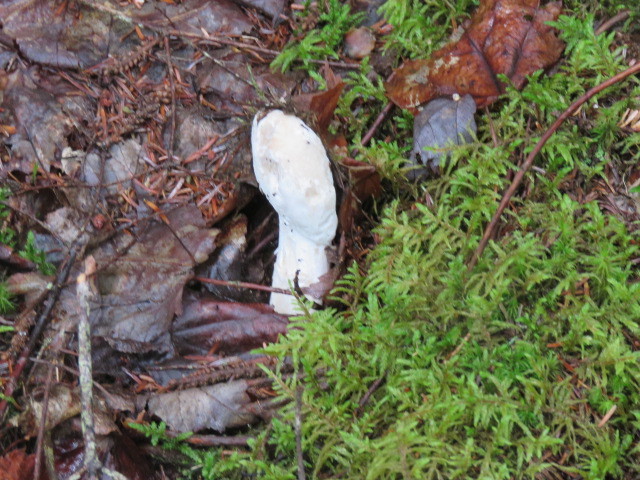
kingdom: Fungi
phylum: Ascomycota
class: Sordariomycetes
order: Hypocreales
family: Hypocreaceae
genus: Hypomyces
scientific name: Hypomyces hyalinus
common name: Amanita mold
